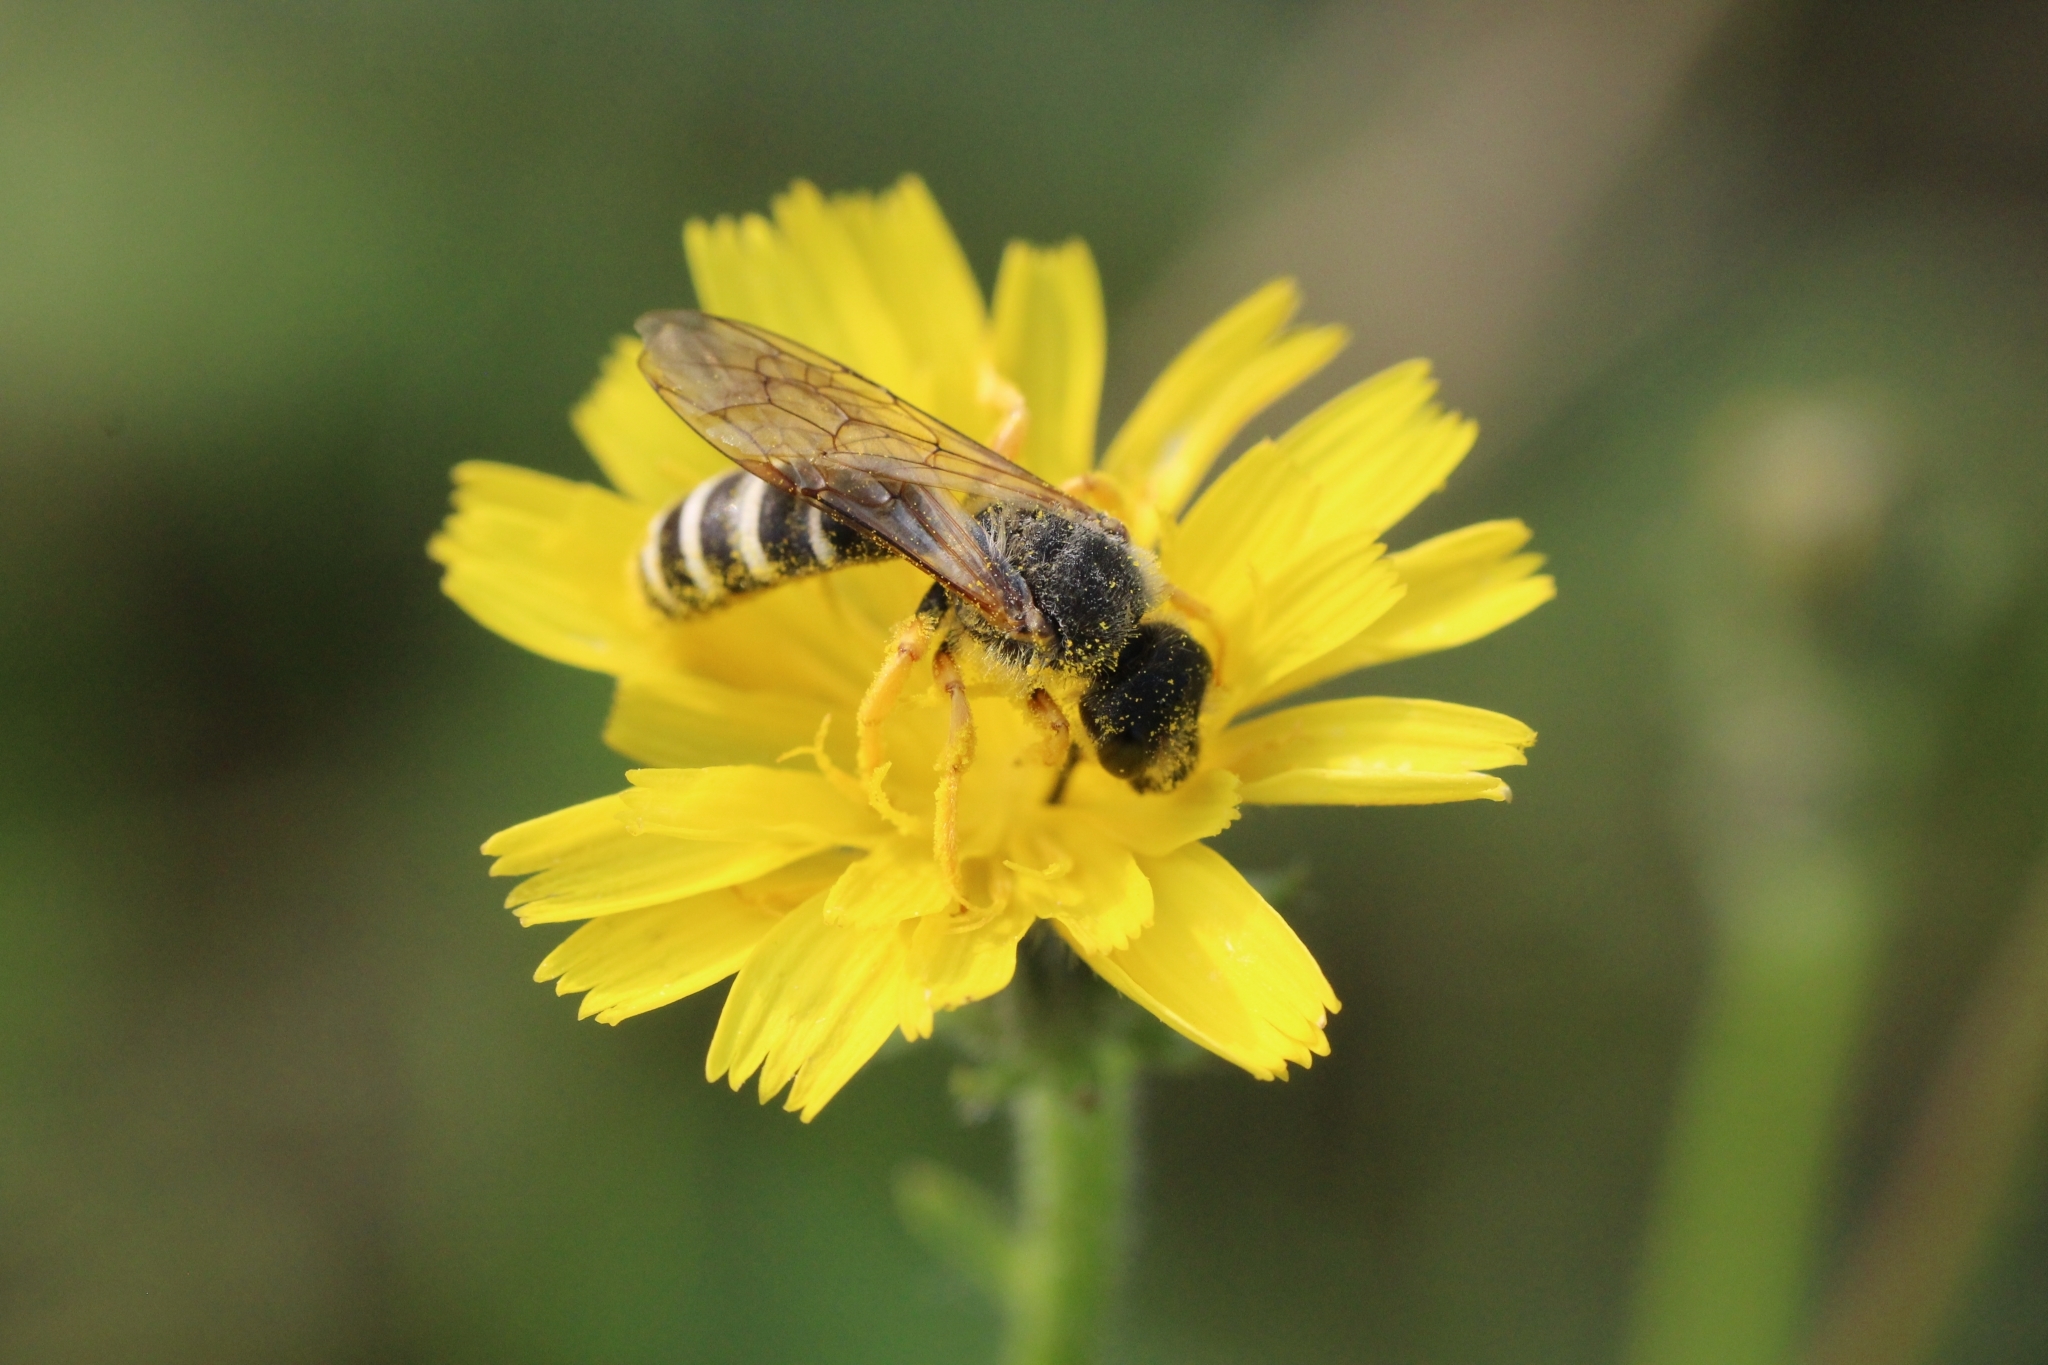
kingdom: Animalia
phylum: Arthropoda
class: Insecta
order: Hymenoptera
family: Halictidae
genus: Halictus
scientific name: Halictus scabiosae
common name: Great banded furrow bee
